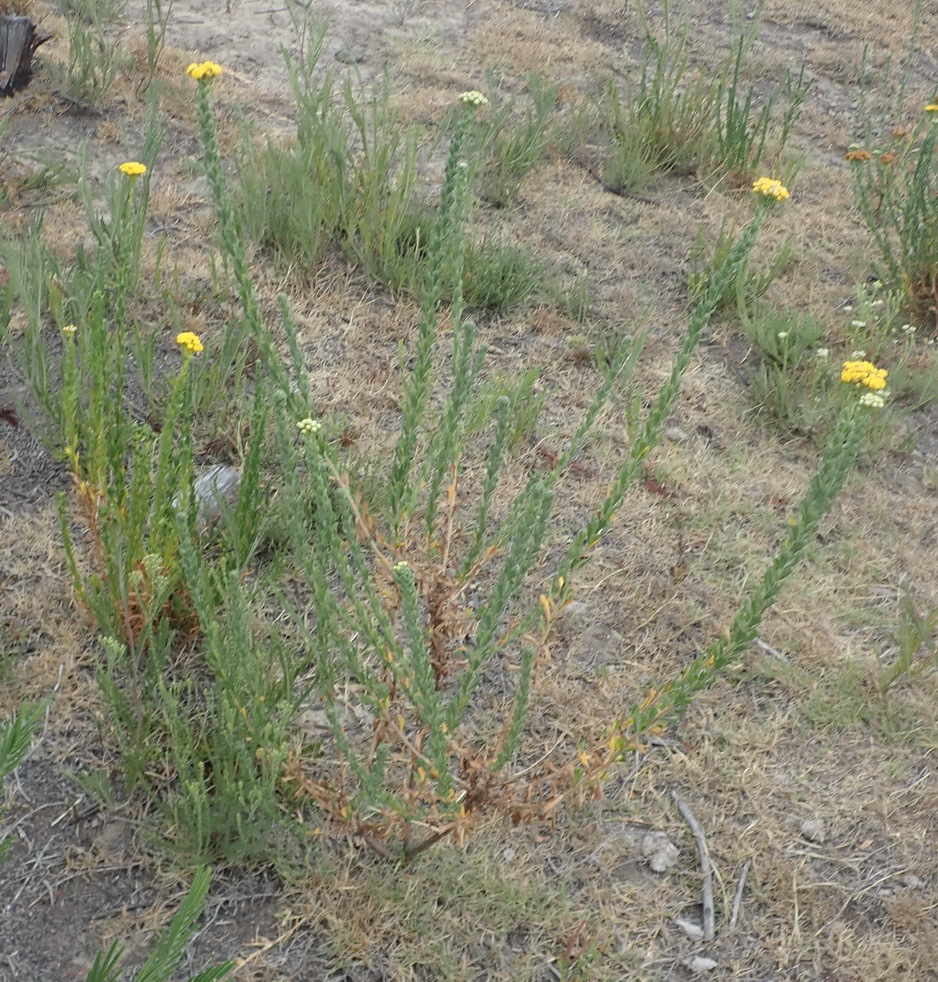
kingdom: Plantae
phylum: Tracheophyta
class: Magnoliopsida
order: Asterales
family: Asteraceae
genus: Athanasia
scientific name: Athanasia trifurcata
